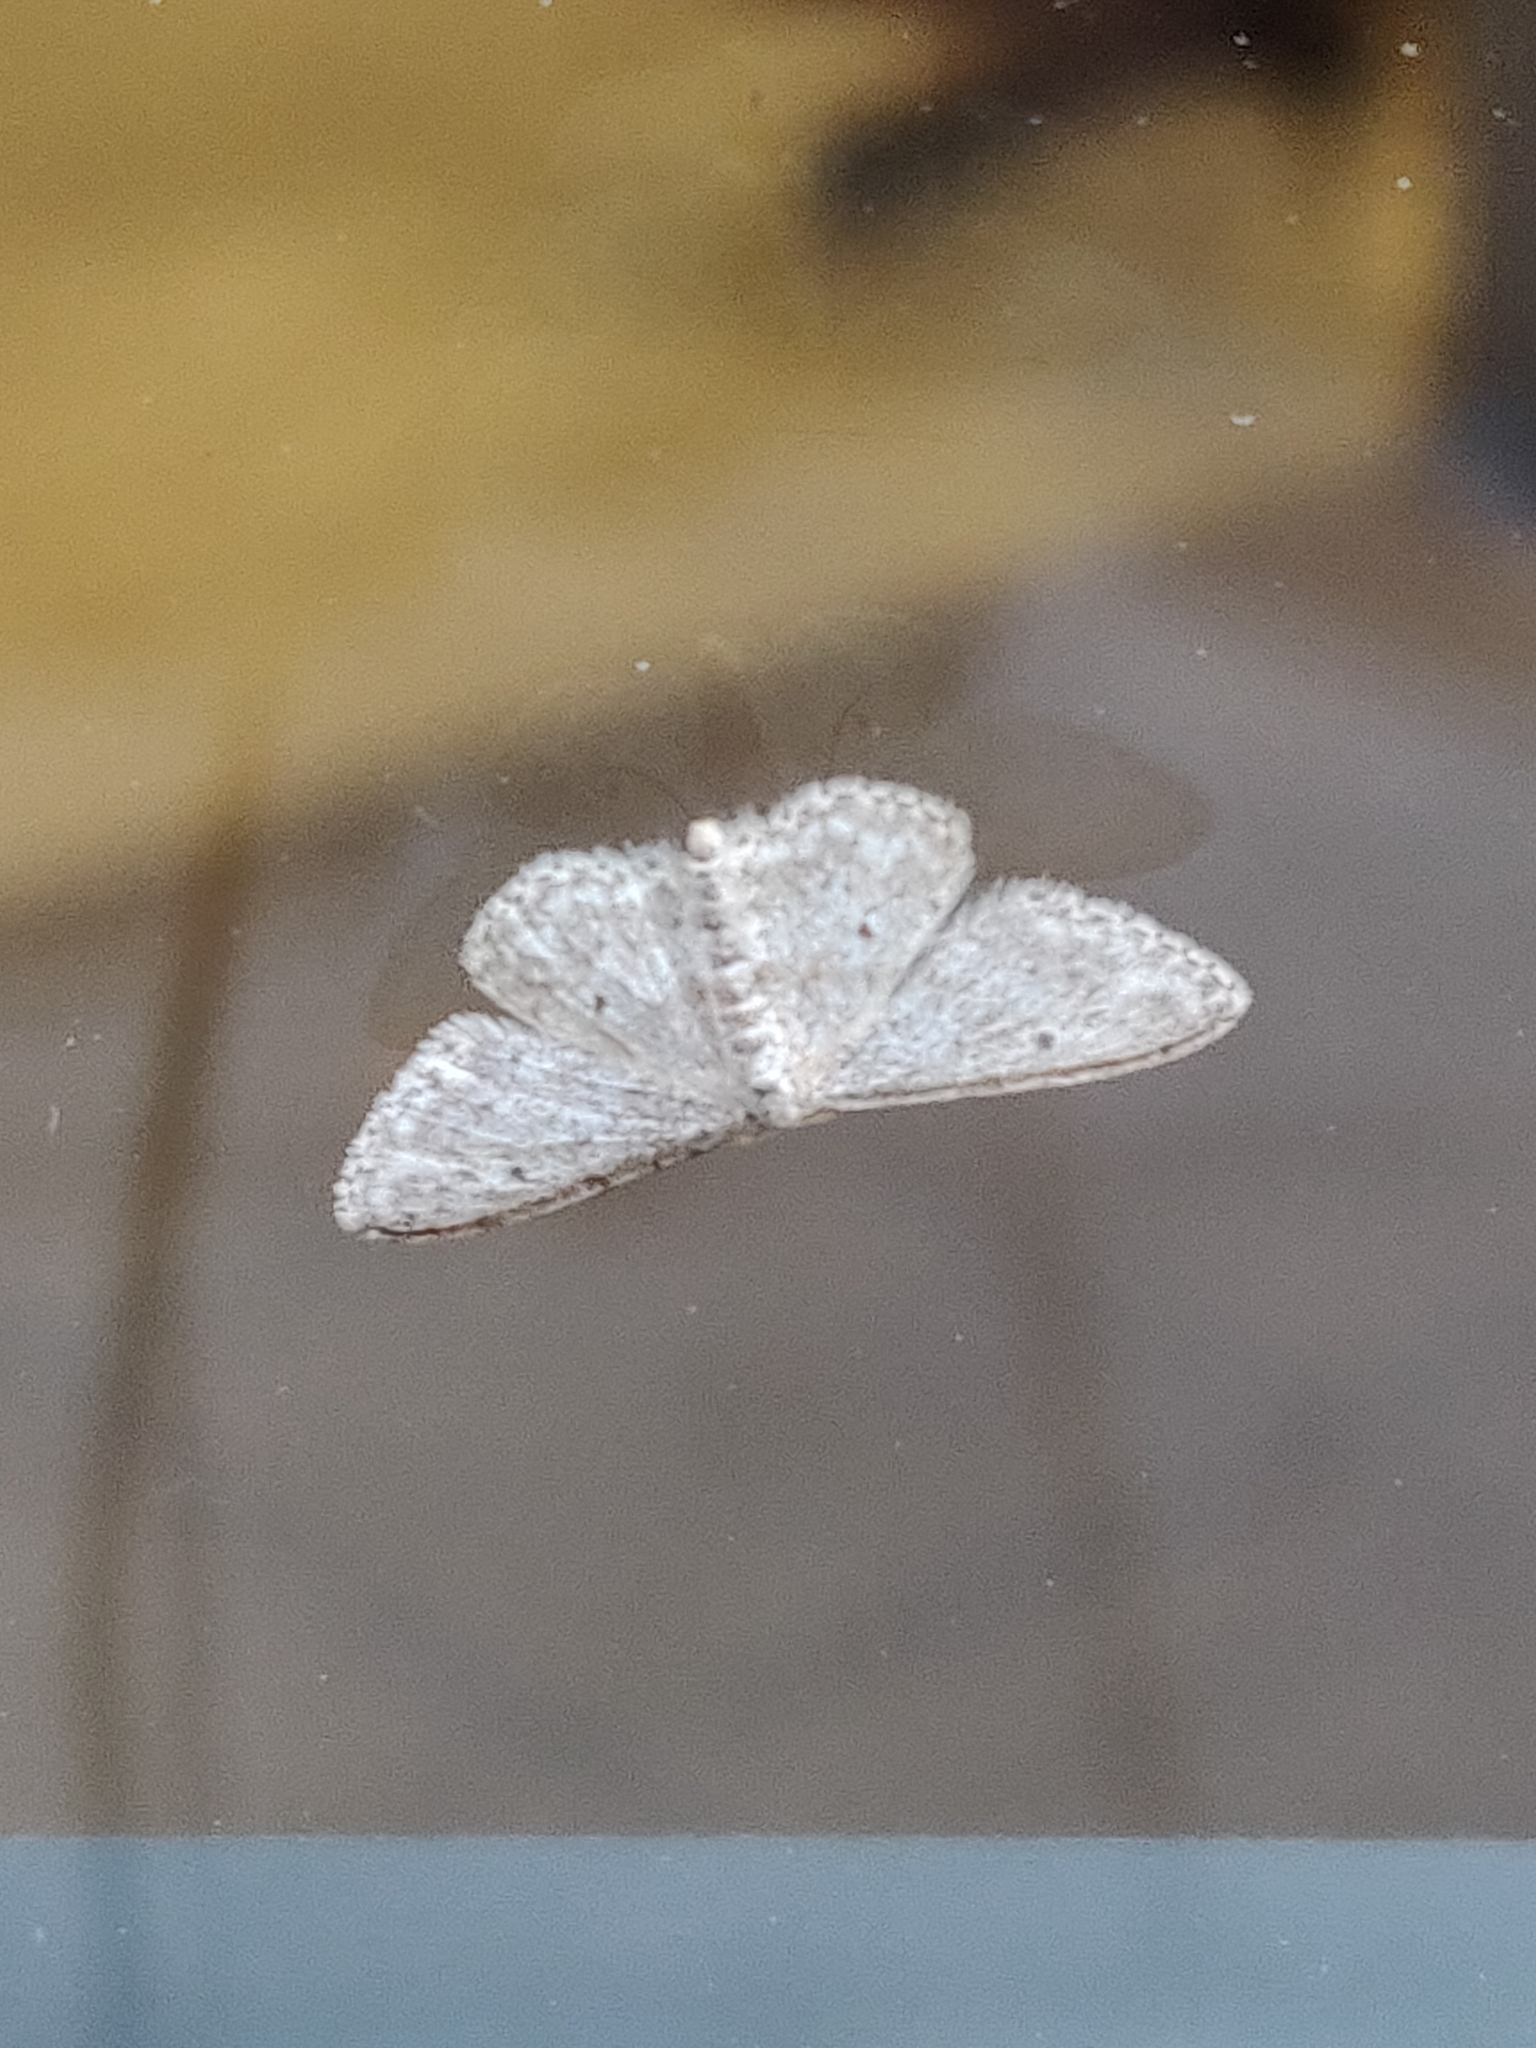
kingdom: Animalia
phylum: Arthropoda
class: Insecta
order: Lepidoptera
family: Geometridae
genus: Idaea
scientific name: Idaea seriata
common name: Small dusty wave
